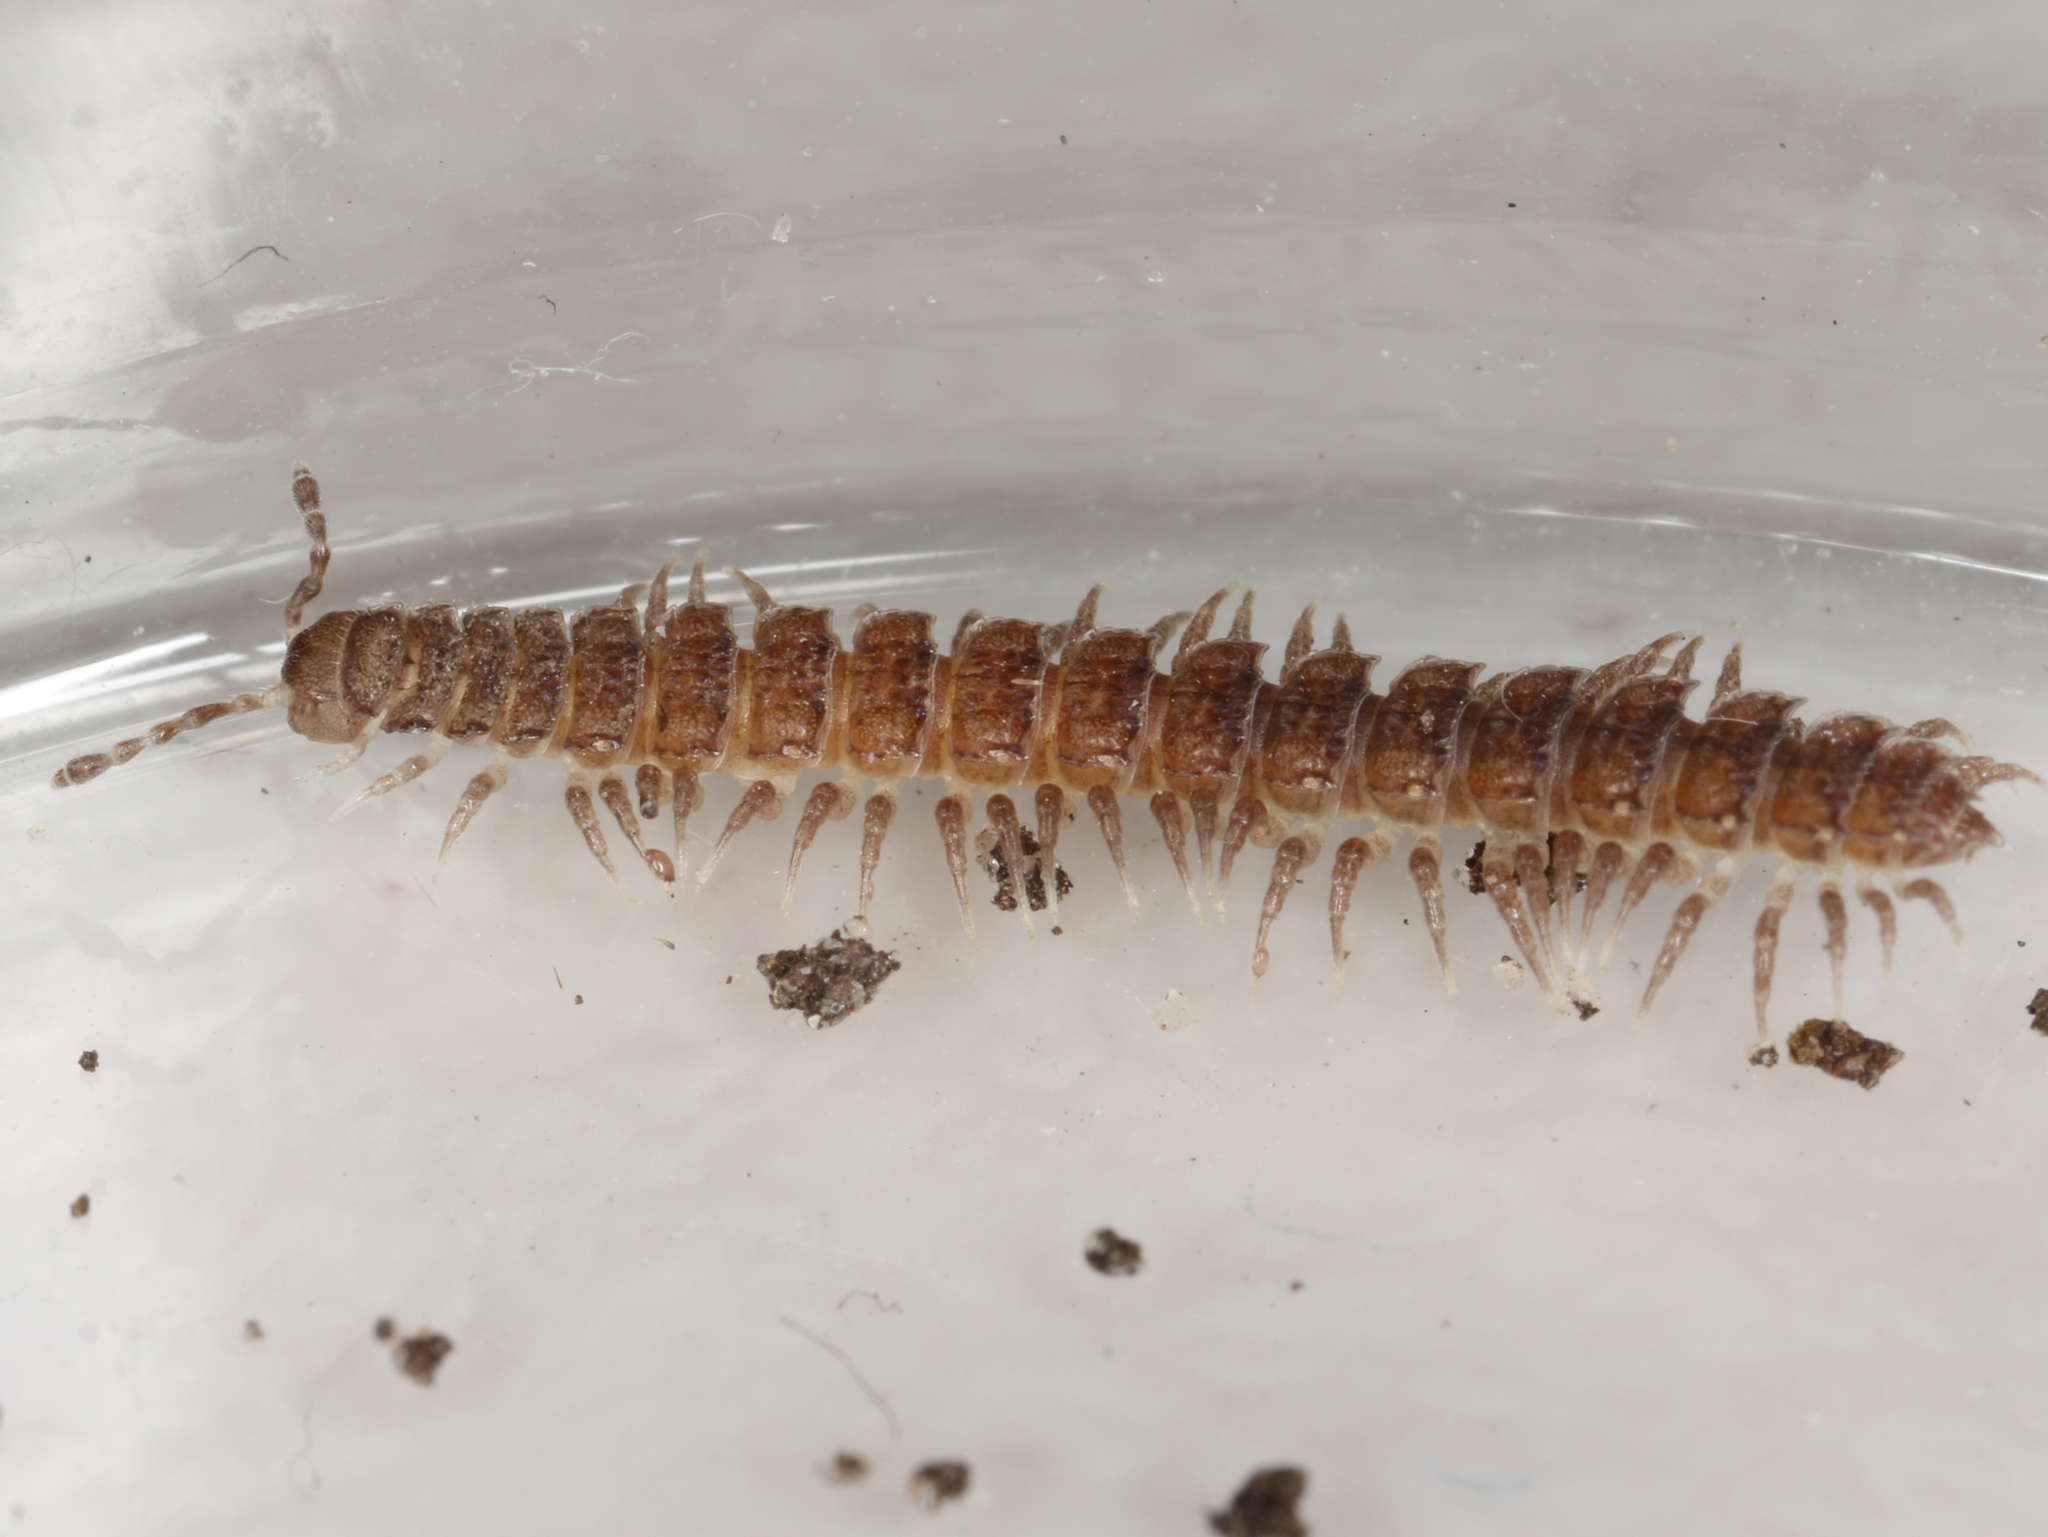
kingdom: Animalia
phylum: Arthropoda
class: Diplopoda
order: Polydesmida
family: Polydesmidae
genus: Polydesmus
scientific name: Polydesmus inconstans
